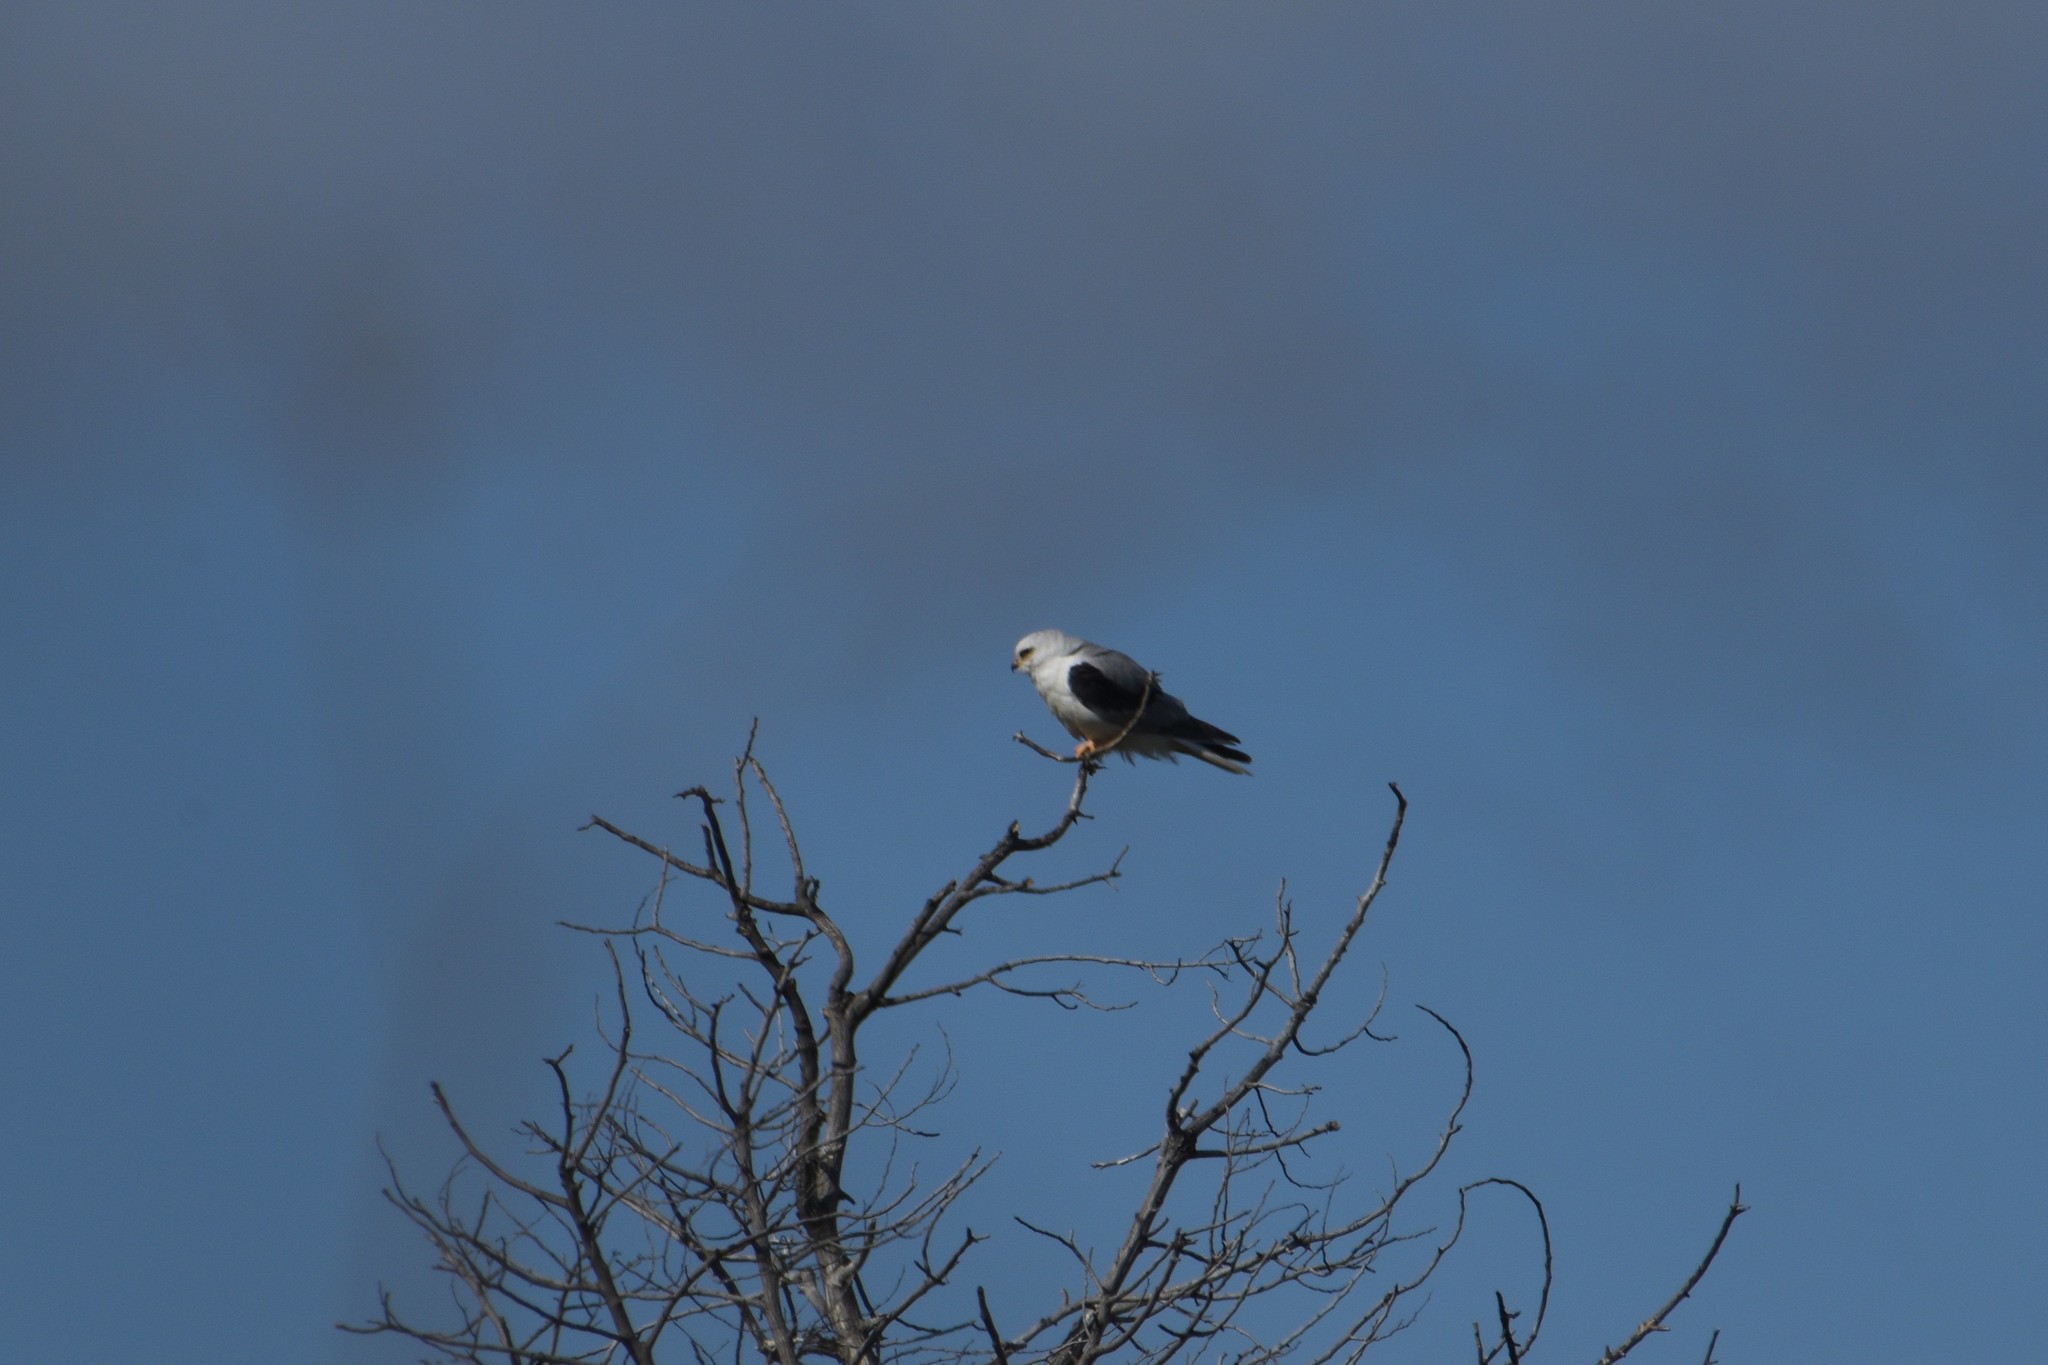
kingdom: Animalia
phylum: Chordata
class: Aves
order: Accipitriformes
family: Accipitridae
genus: Elanus
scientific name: Elanus leucurus
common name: White-tailed kite
